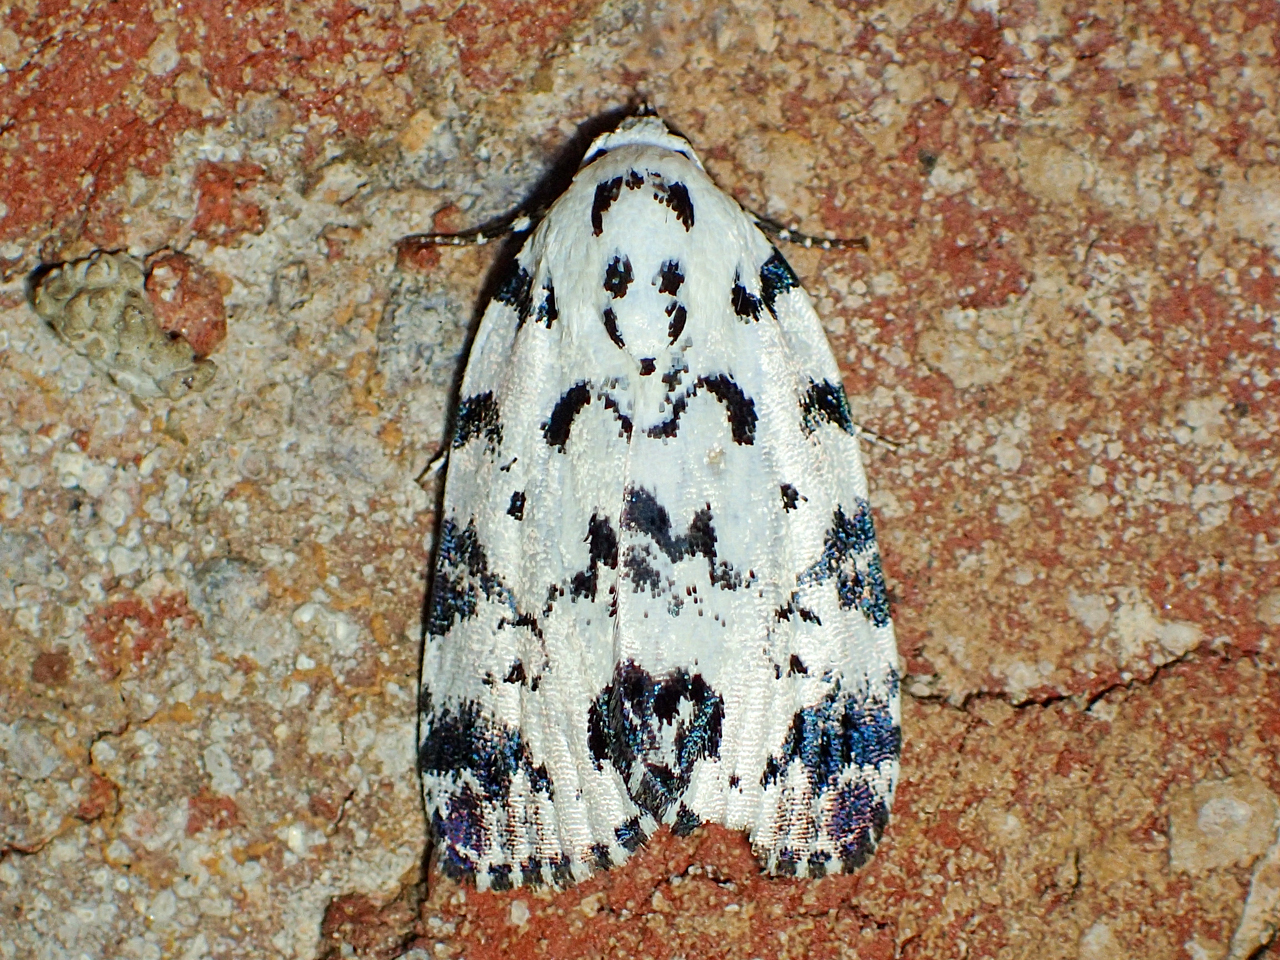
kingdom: Animalia
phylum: Arthropoda
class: Insecta
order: Lepidoptera
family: Noctuidae
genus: Polygrammate
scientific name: Polygrammate hebraeicum
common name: Hebrew moth
